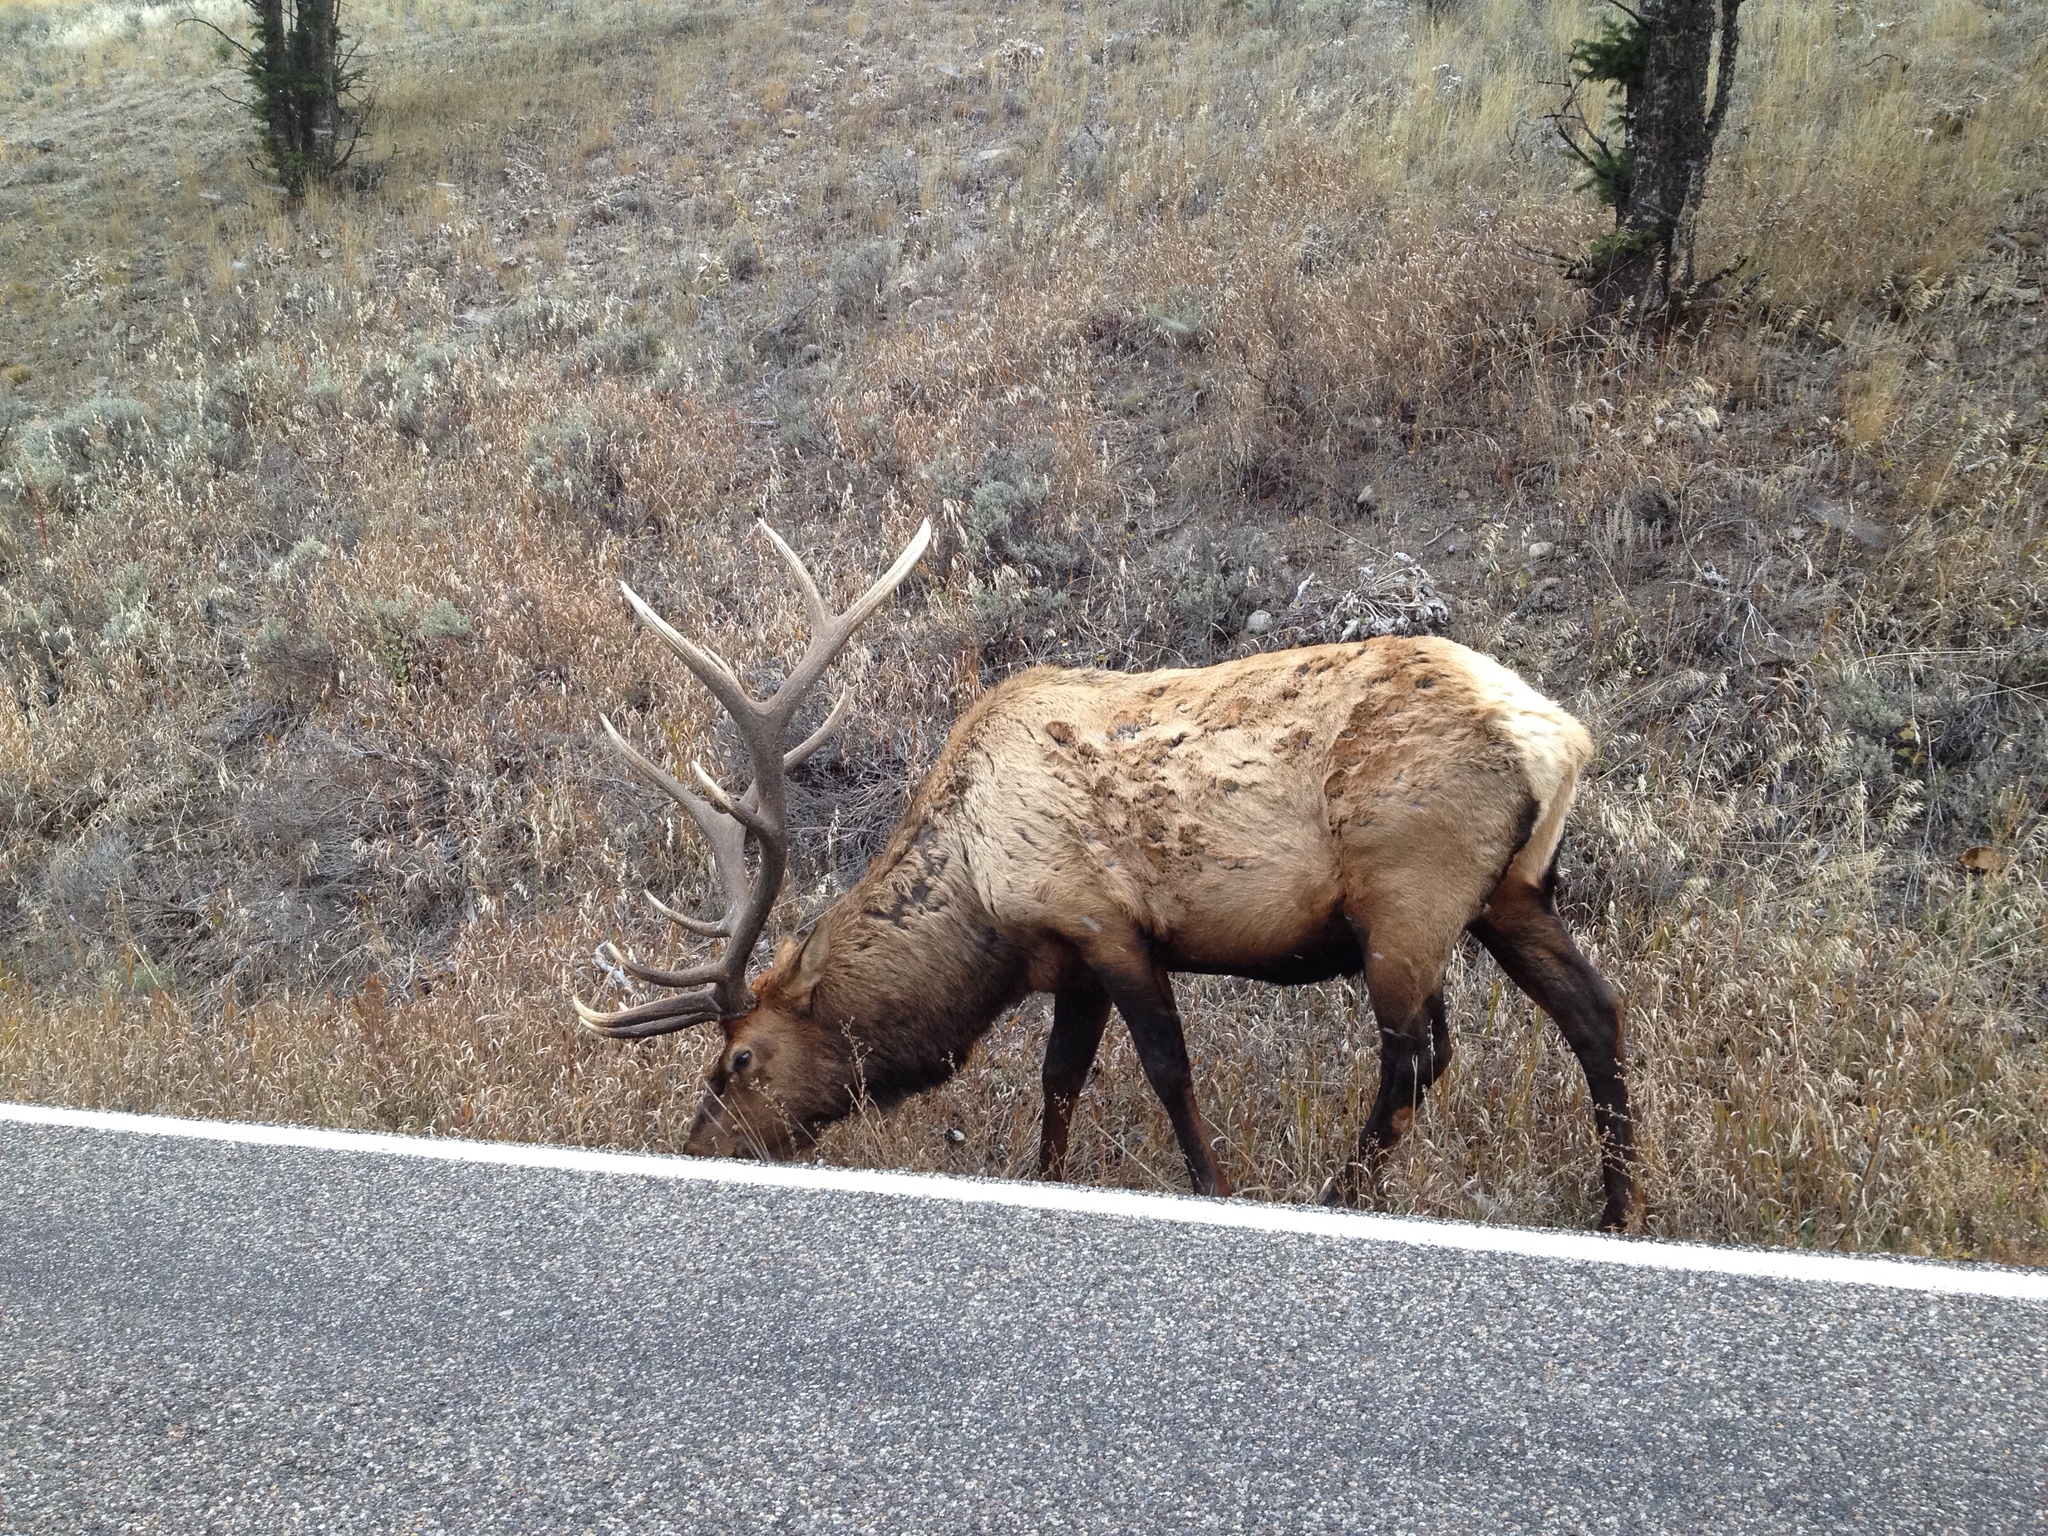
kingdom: Animalia
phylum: Chordata
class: Mammalia
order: Artiodactyla
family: Cervidae
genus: Cervus
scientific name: Cervus elaphus
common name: Red deer
